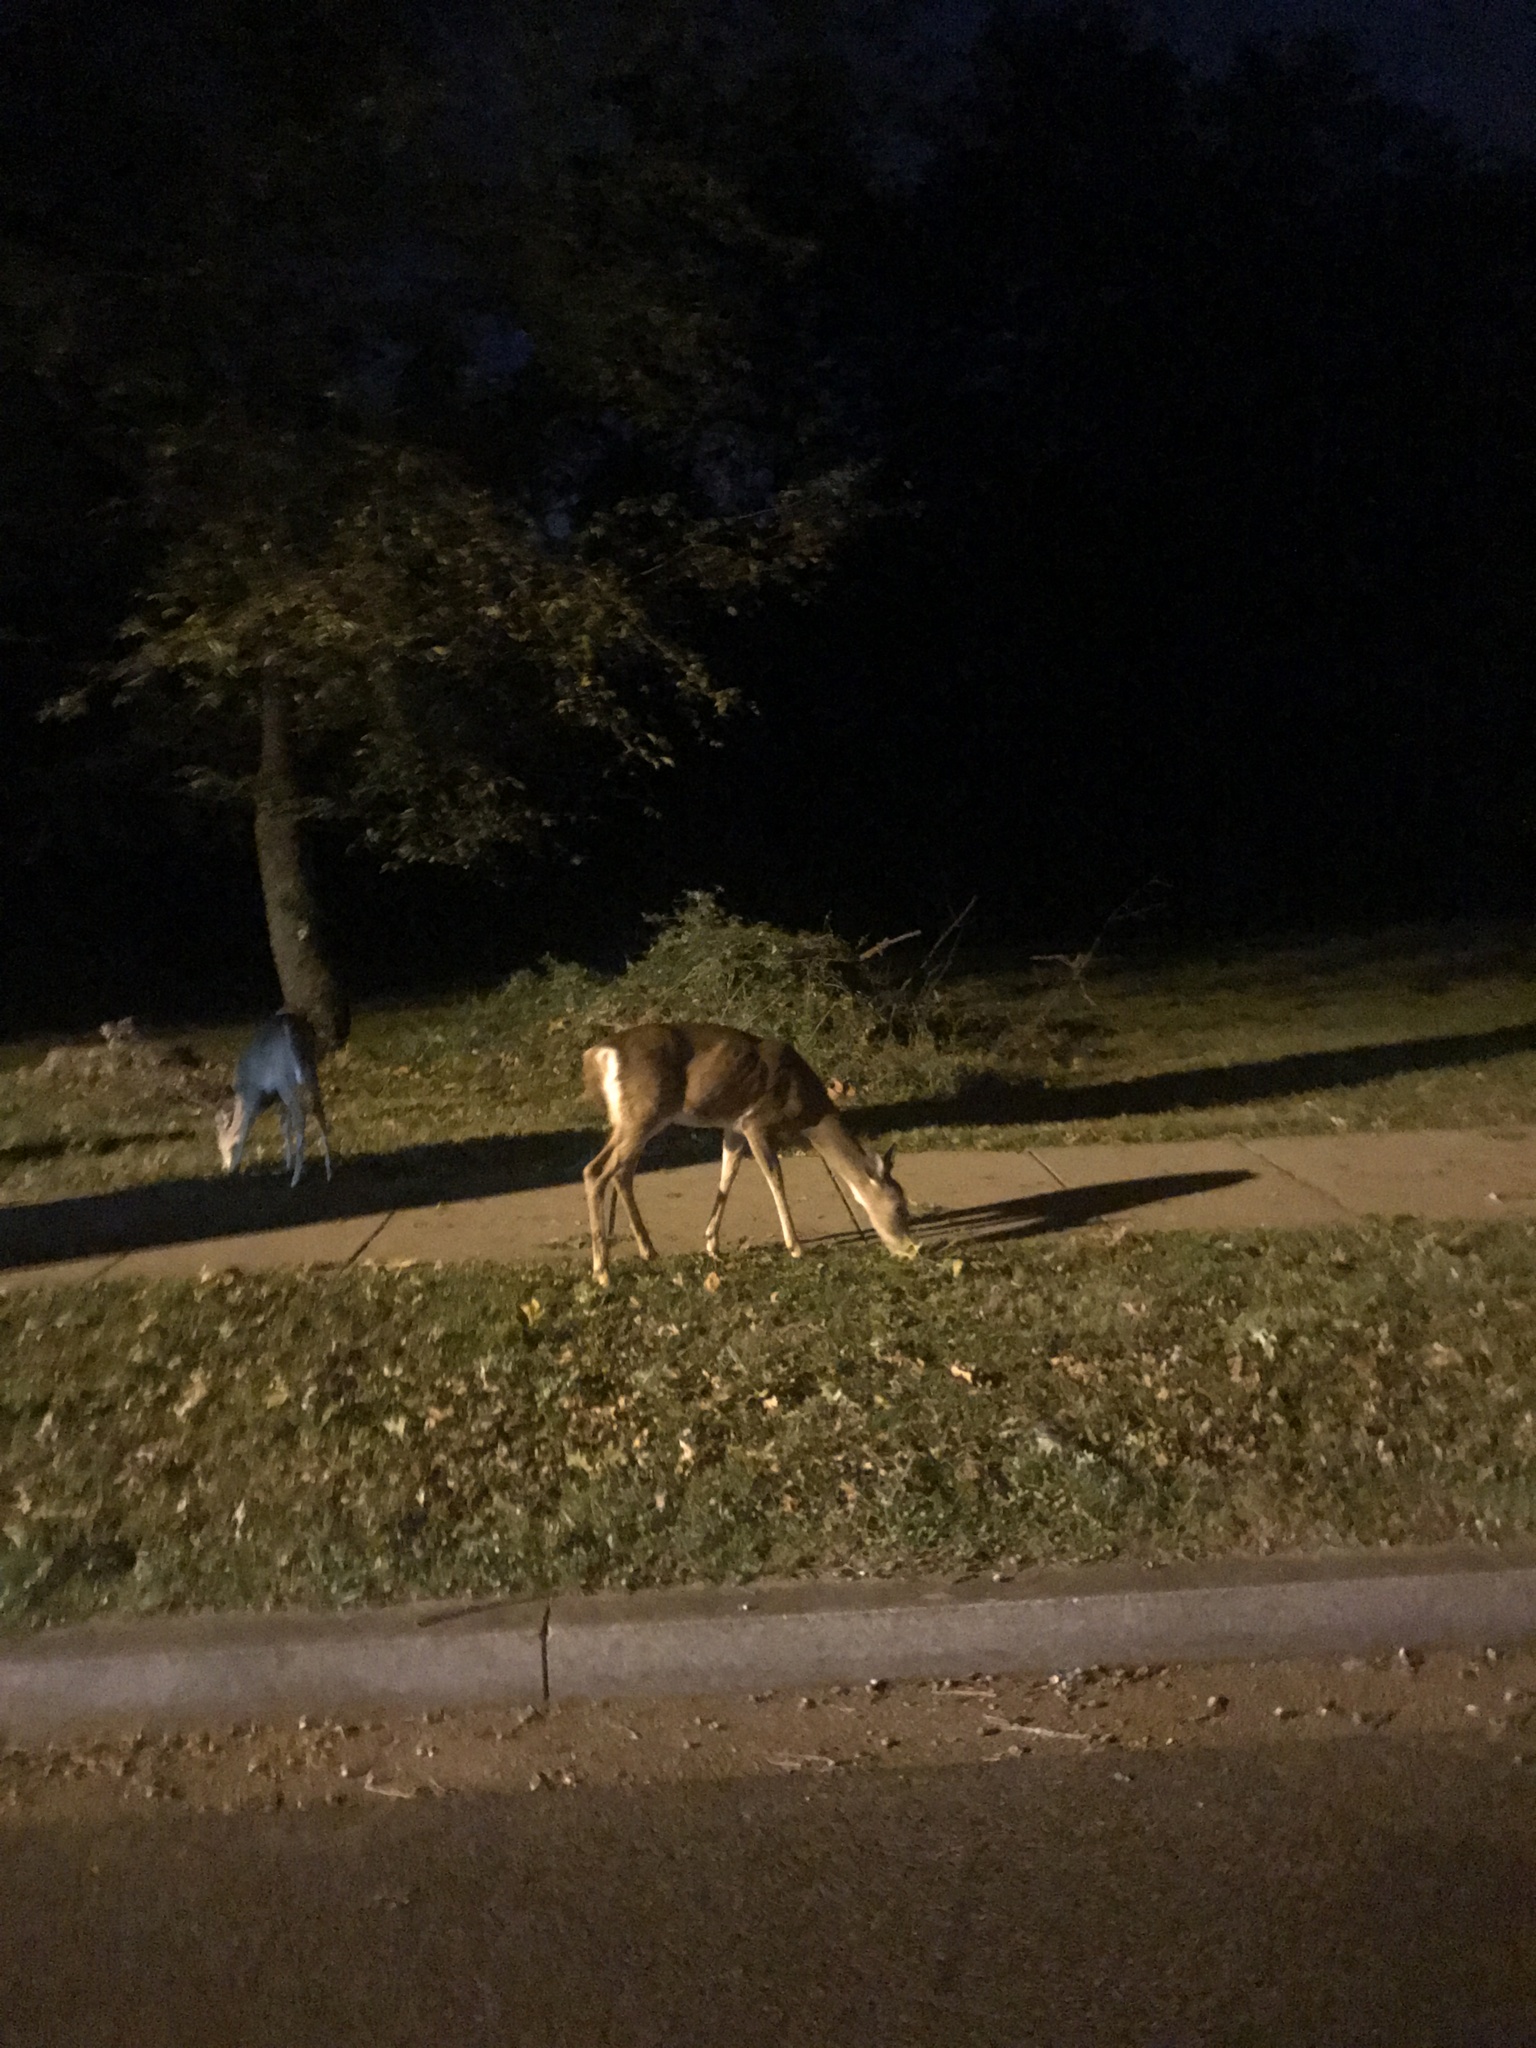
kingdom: Animalia
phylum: Chordata
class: Mammalia
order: Artiodactyla
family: Cervidae
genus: Odocoileus
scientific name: Odocoileus virginianus
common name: White-tailed deer
